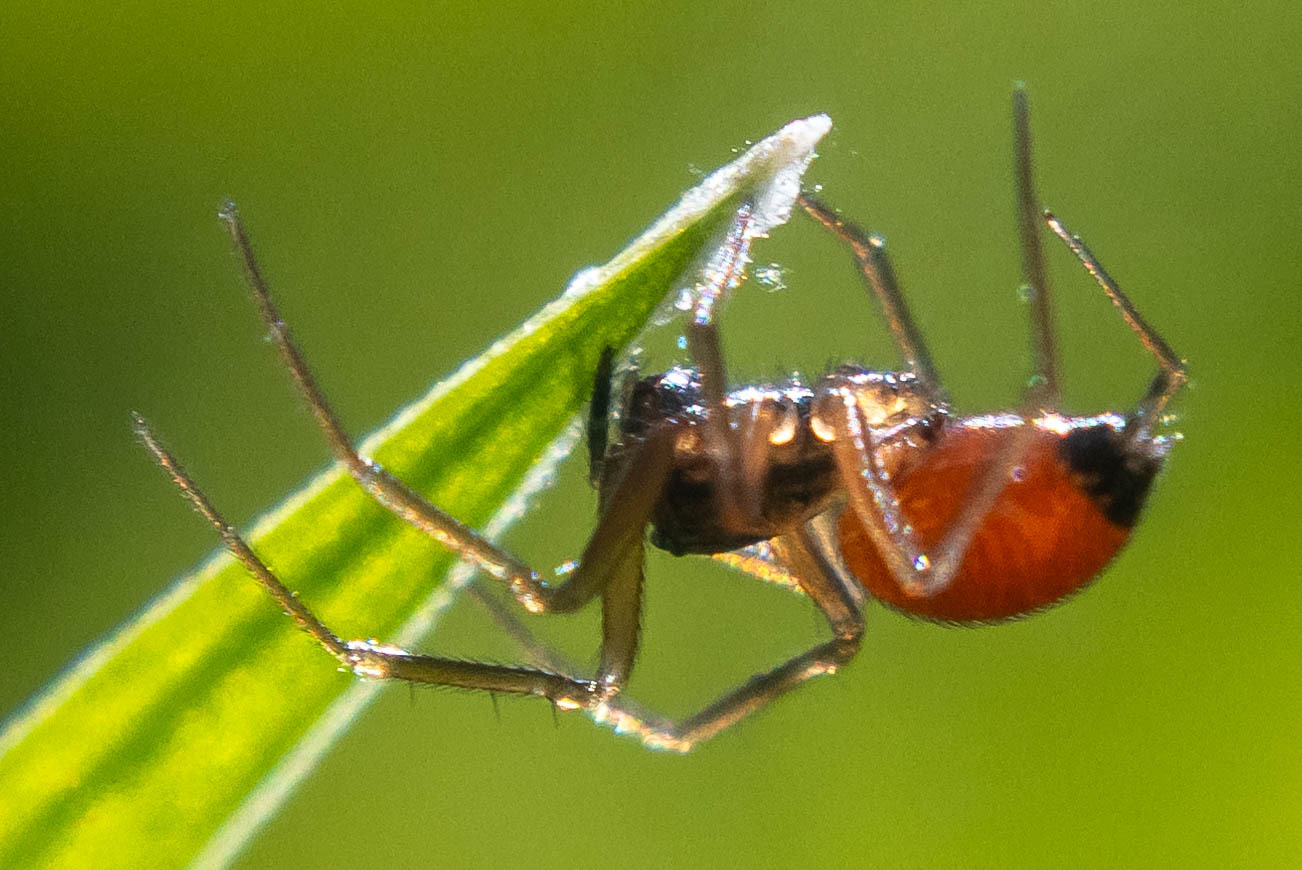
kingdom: Animalia
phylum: Arthropoda
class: Arachnida
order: Araneae
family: Linyphiidae
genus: Ostearius
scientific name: Ostearius melanopygius
